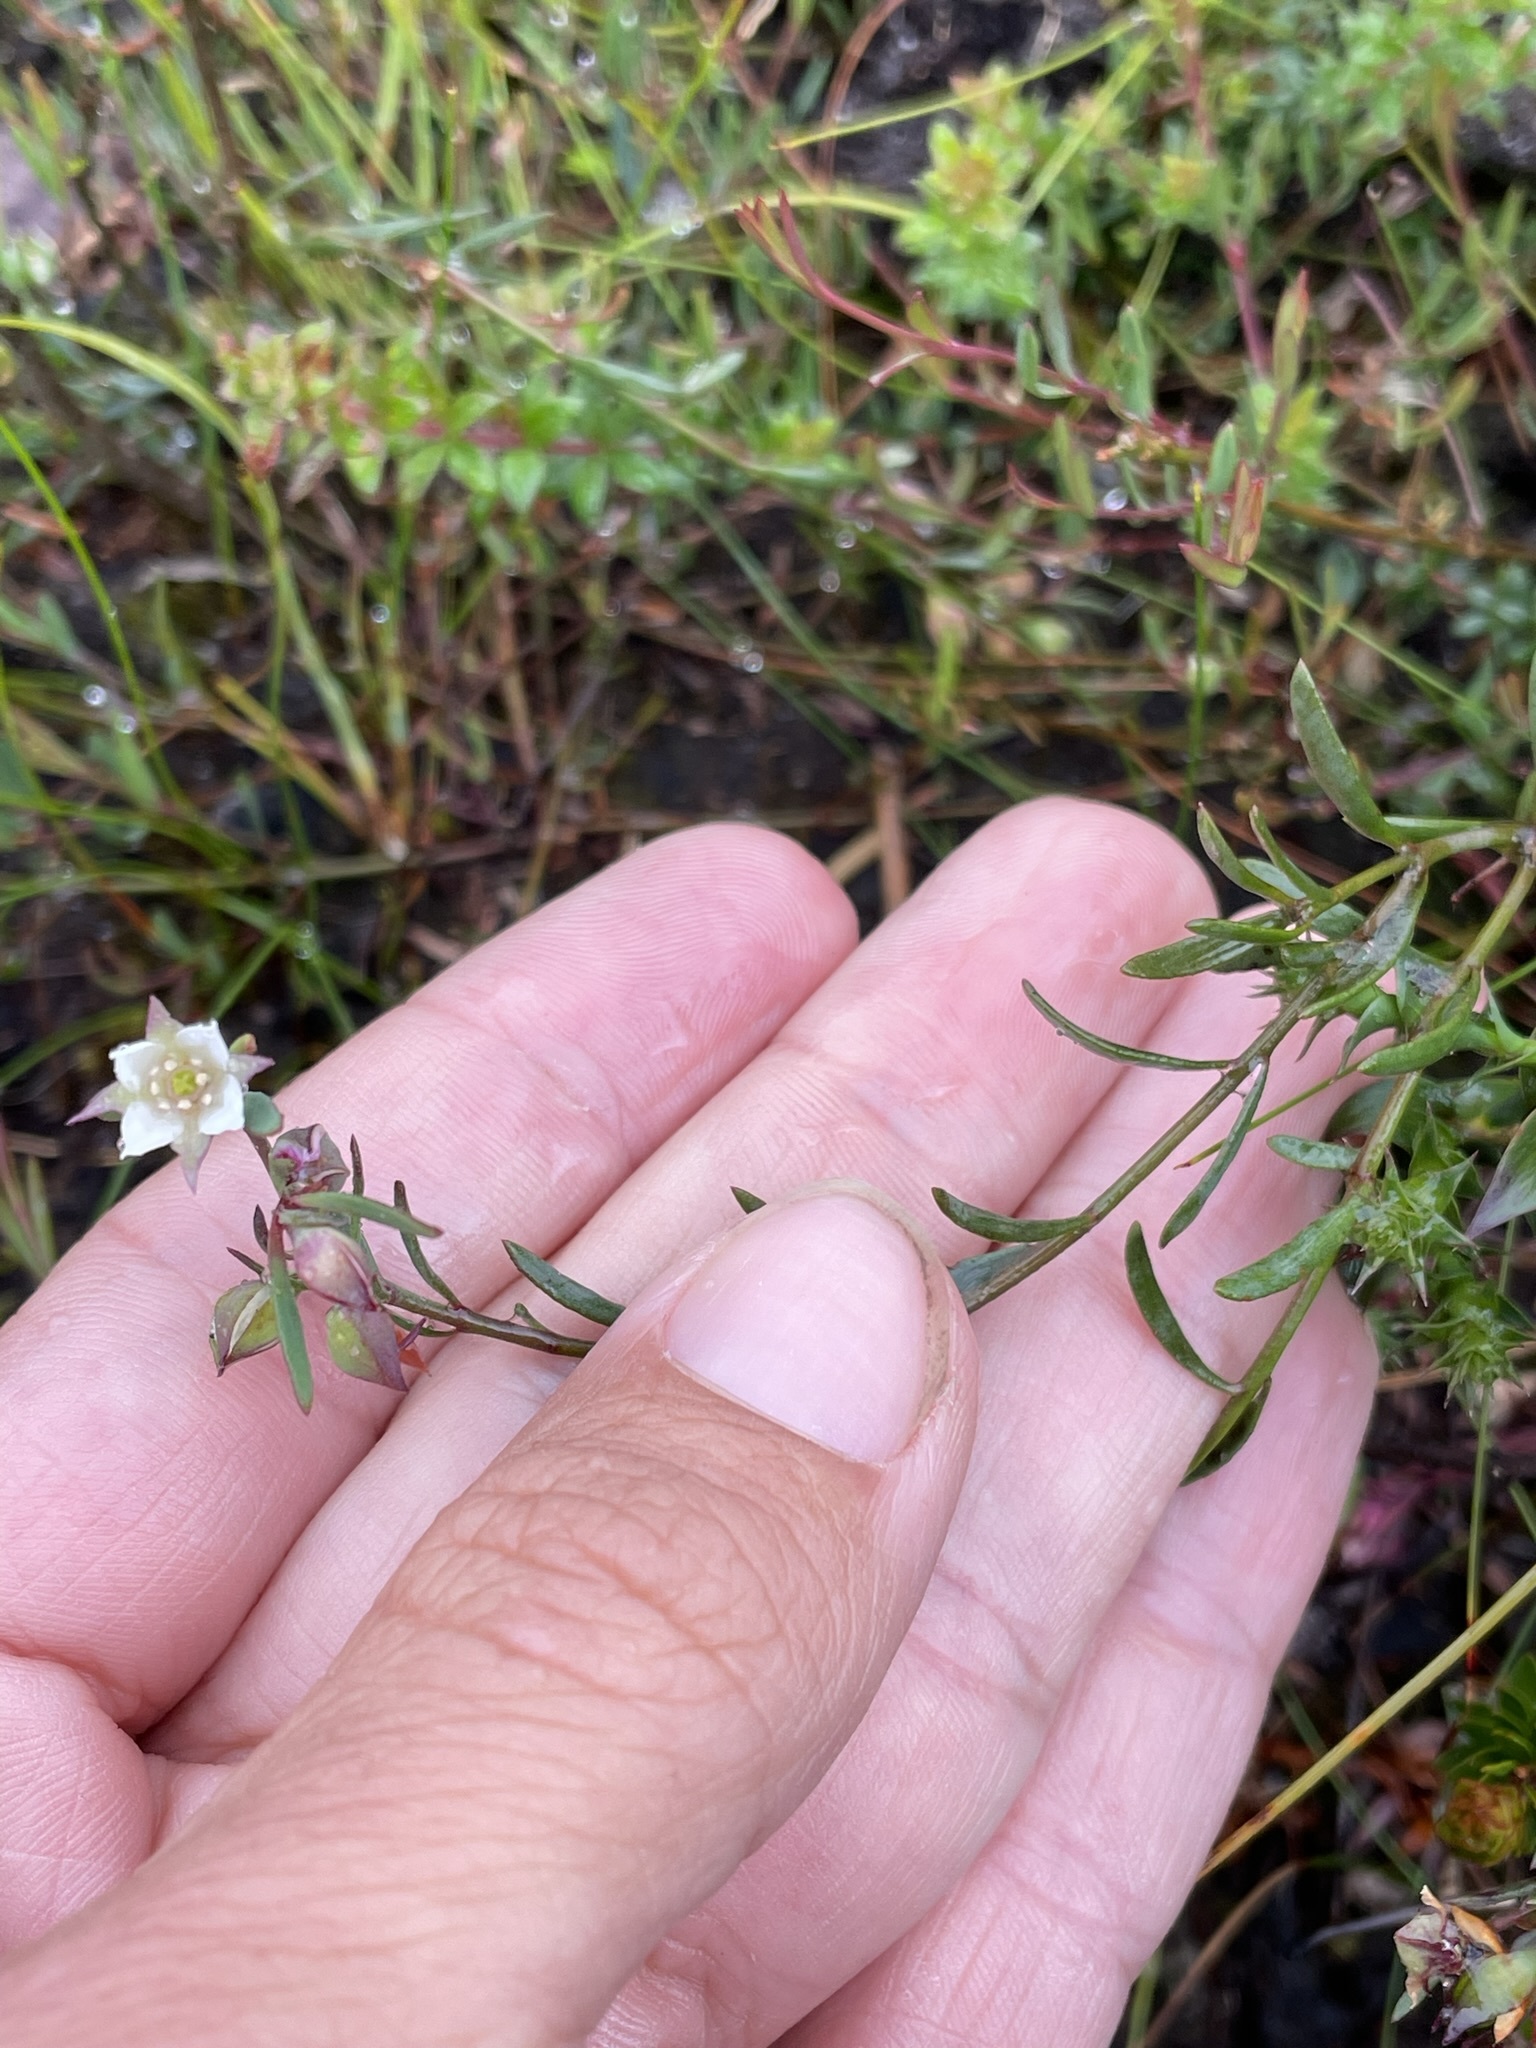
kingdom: Plantae
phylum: Tracheophyta
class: Magnoliopsida
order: Sapindales
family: Rutaceae
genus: Boronia
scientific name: Boronia parviflora
